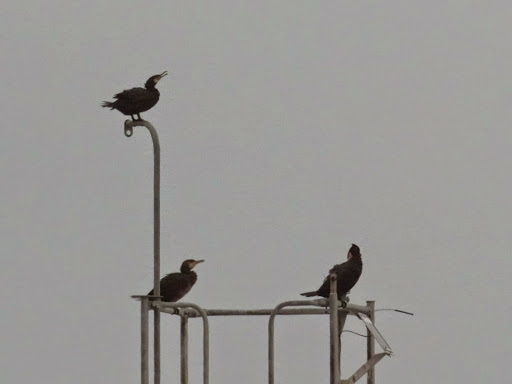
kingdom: Animalia
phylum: Chordata
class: Aves
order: Suliformes
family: Phalacrocoracidae
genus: Phalacrocorax
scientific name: Phalacrocorax carbo
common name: Great cormorant
